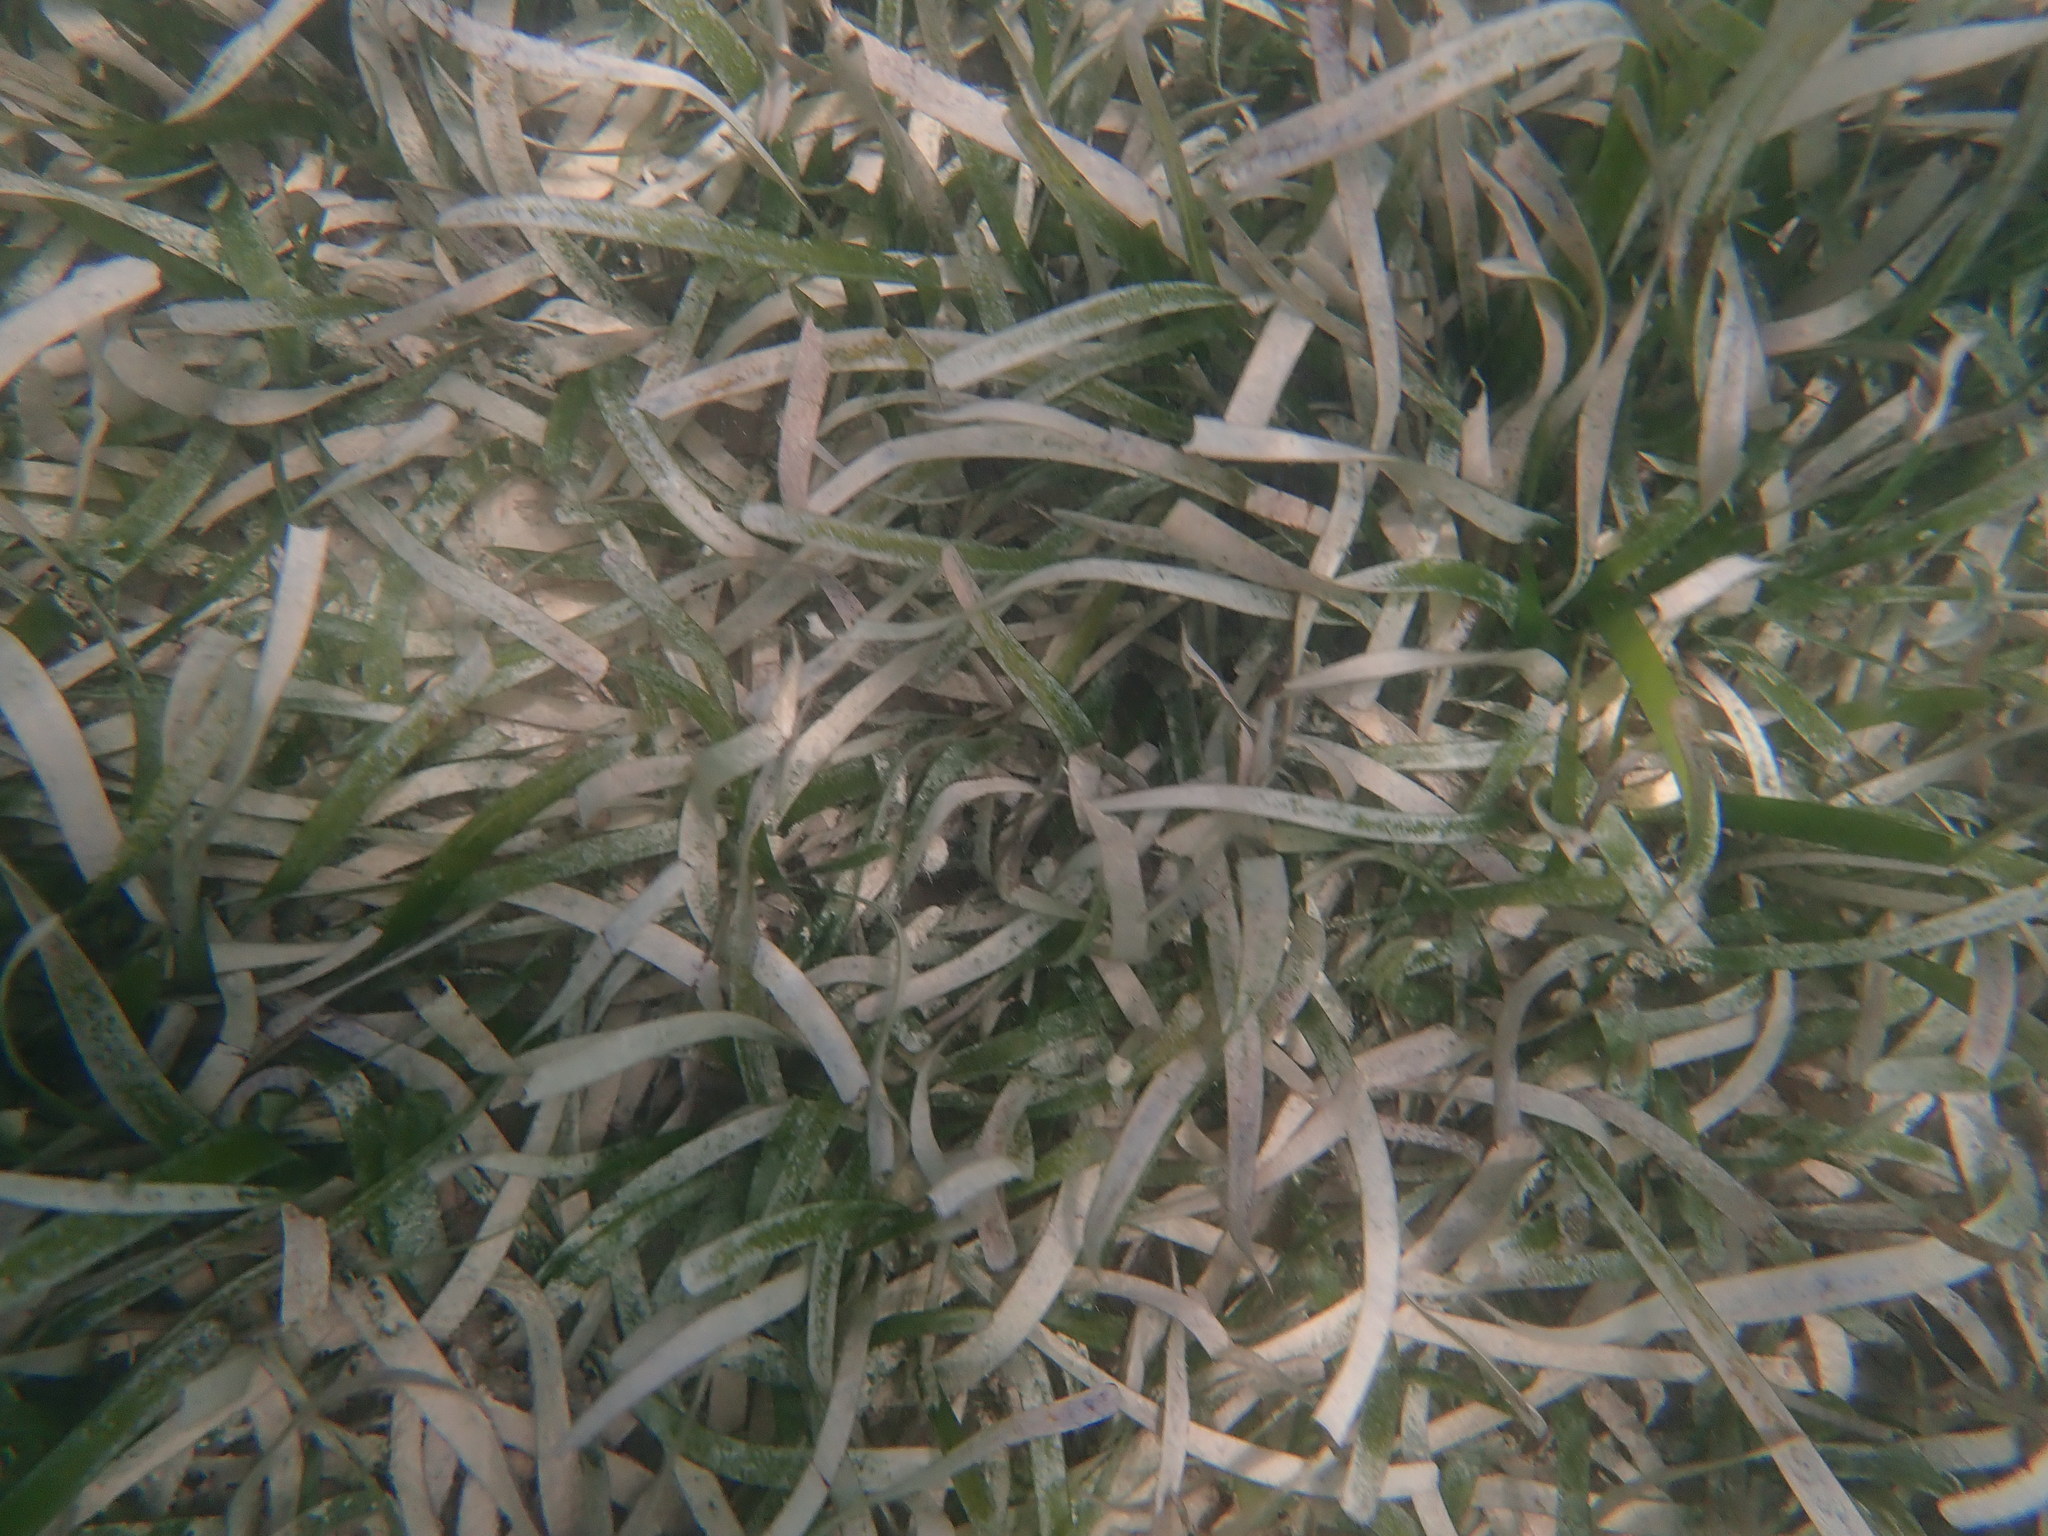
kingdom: Plantae
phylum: Tracheophyta
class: Liliopsida
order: Alismatales
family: Hydrocharitaceae
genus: Thalassia
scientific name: Thalassia testudinum
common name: Species code: tt
